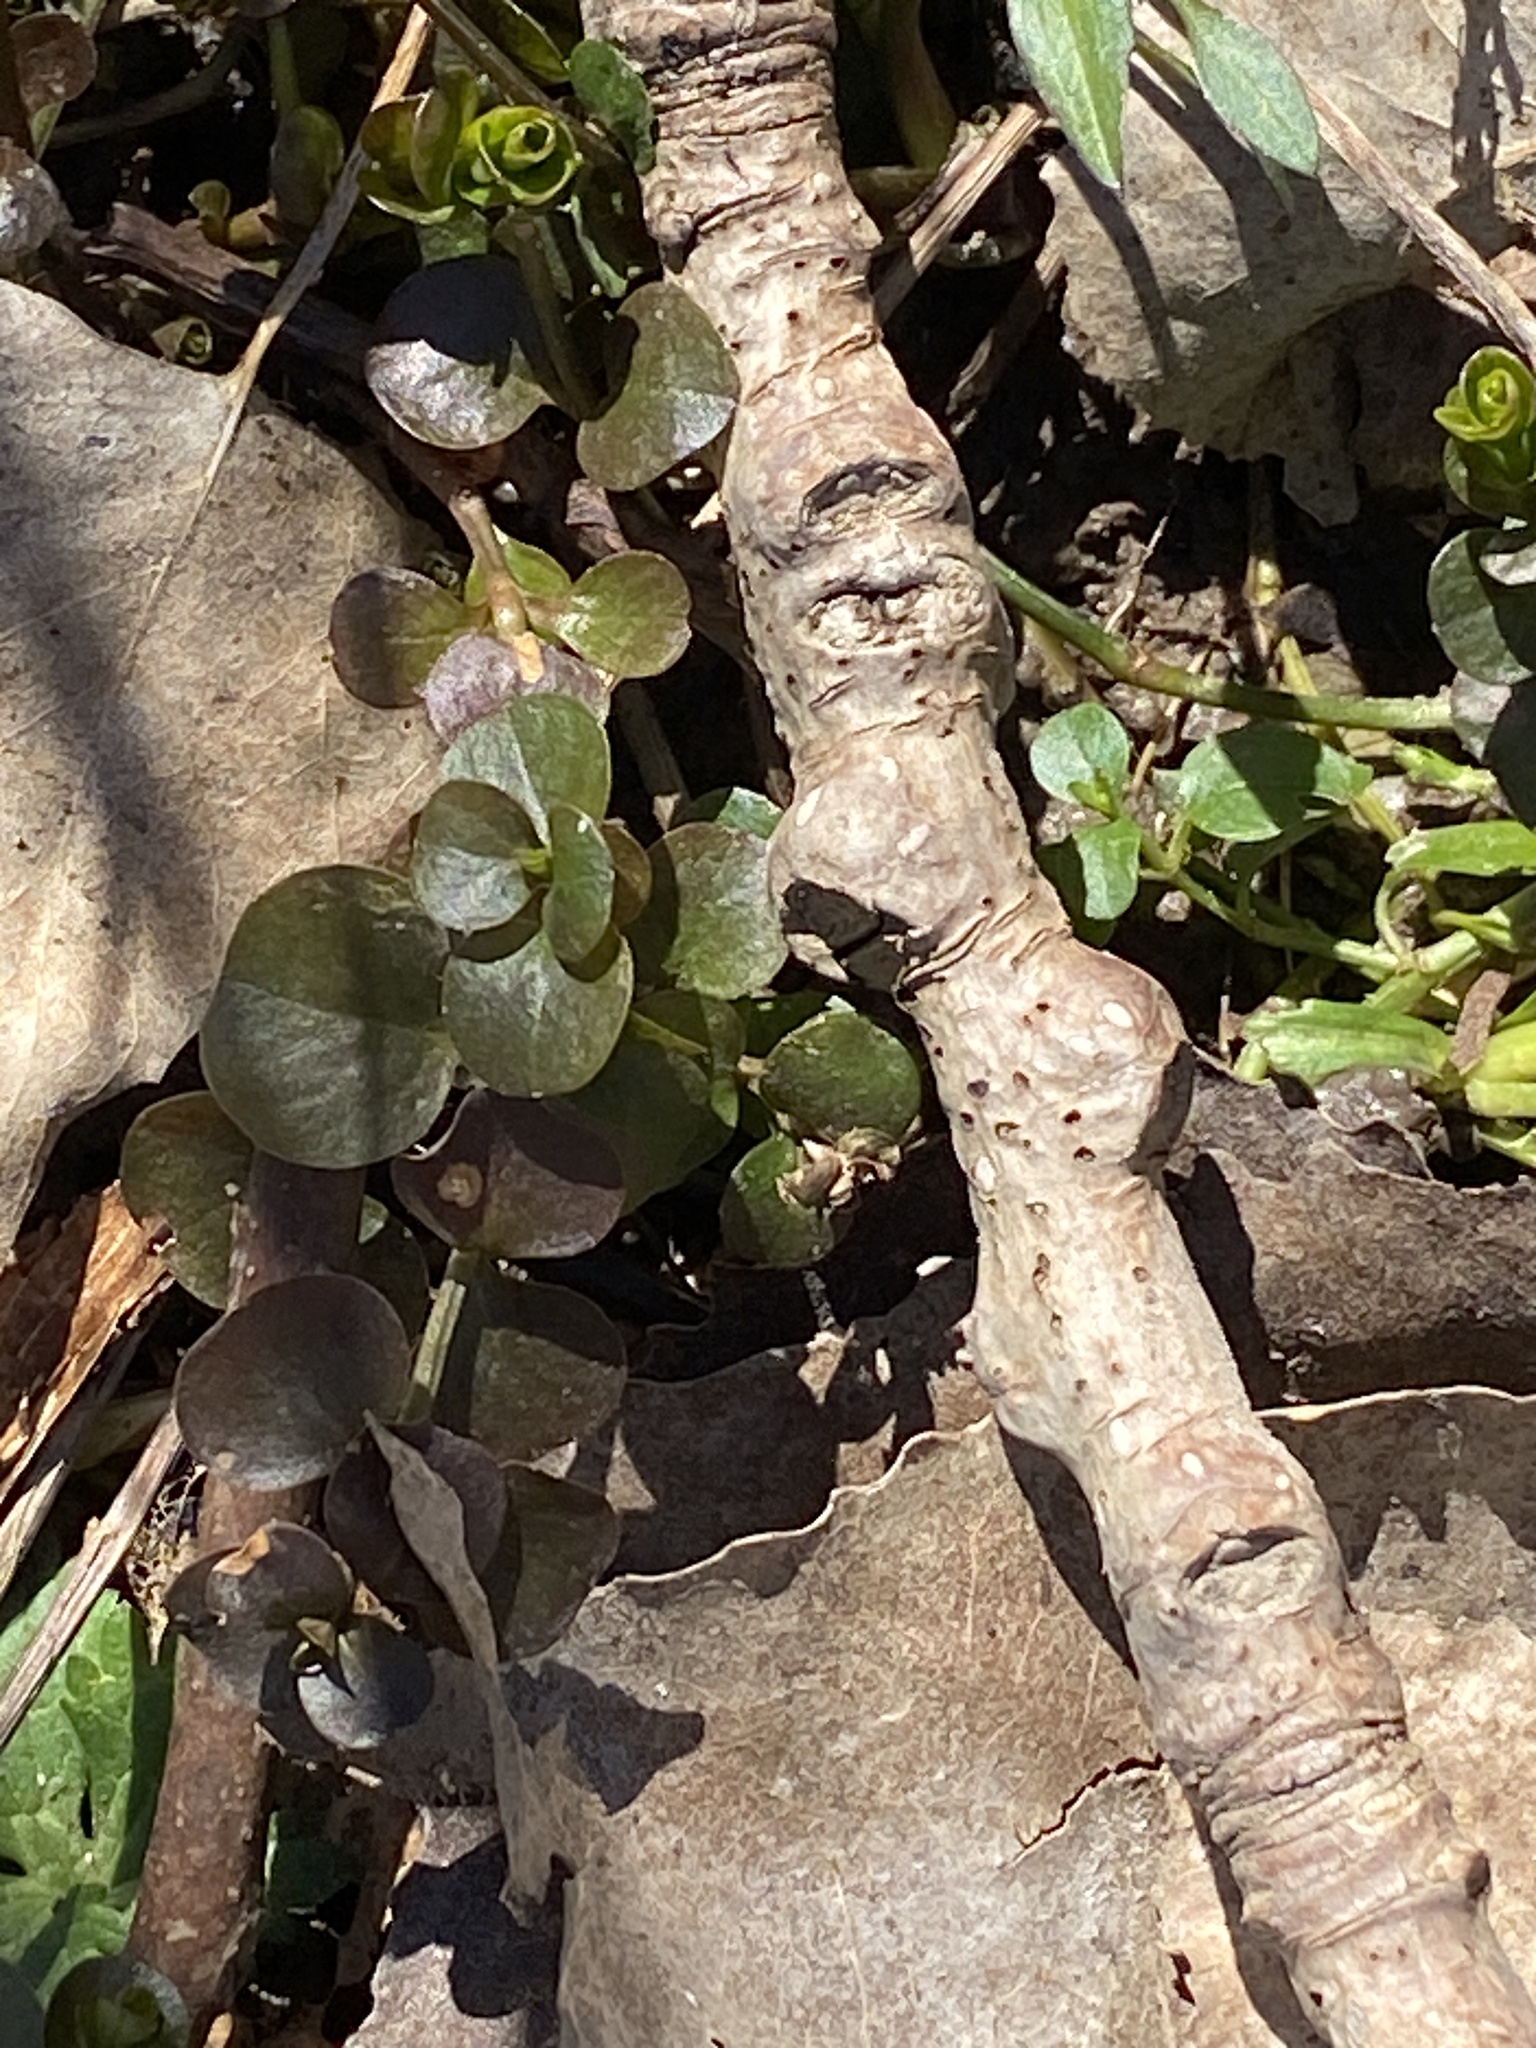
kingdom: Plantae
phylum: Tracheophyta
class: Magnoliopsida
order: Ericales
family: Primulaceae
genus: Lysimachia
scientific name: Lysimachia nummularia
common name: Moneywort
